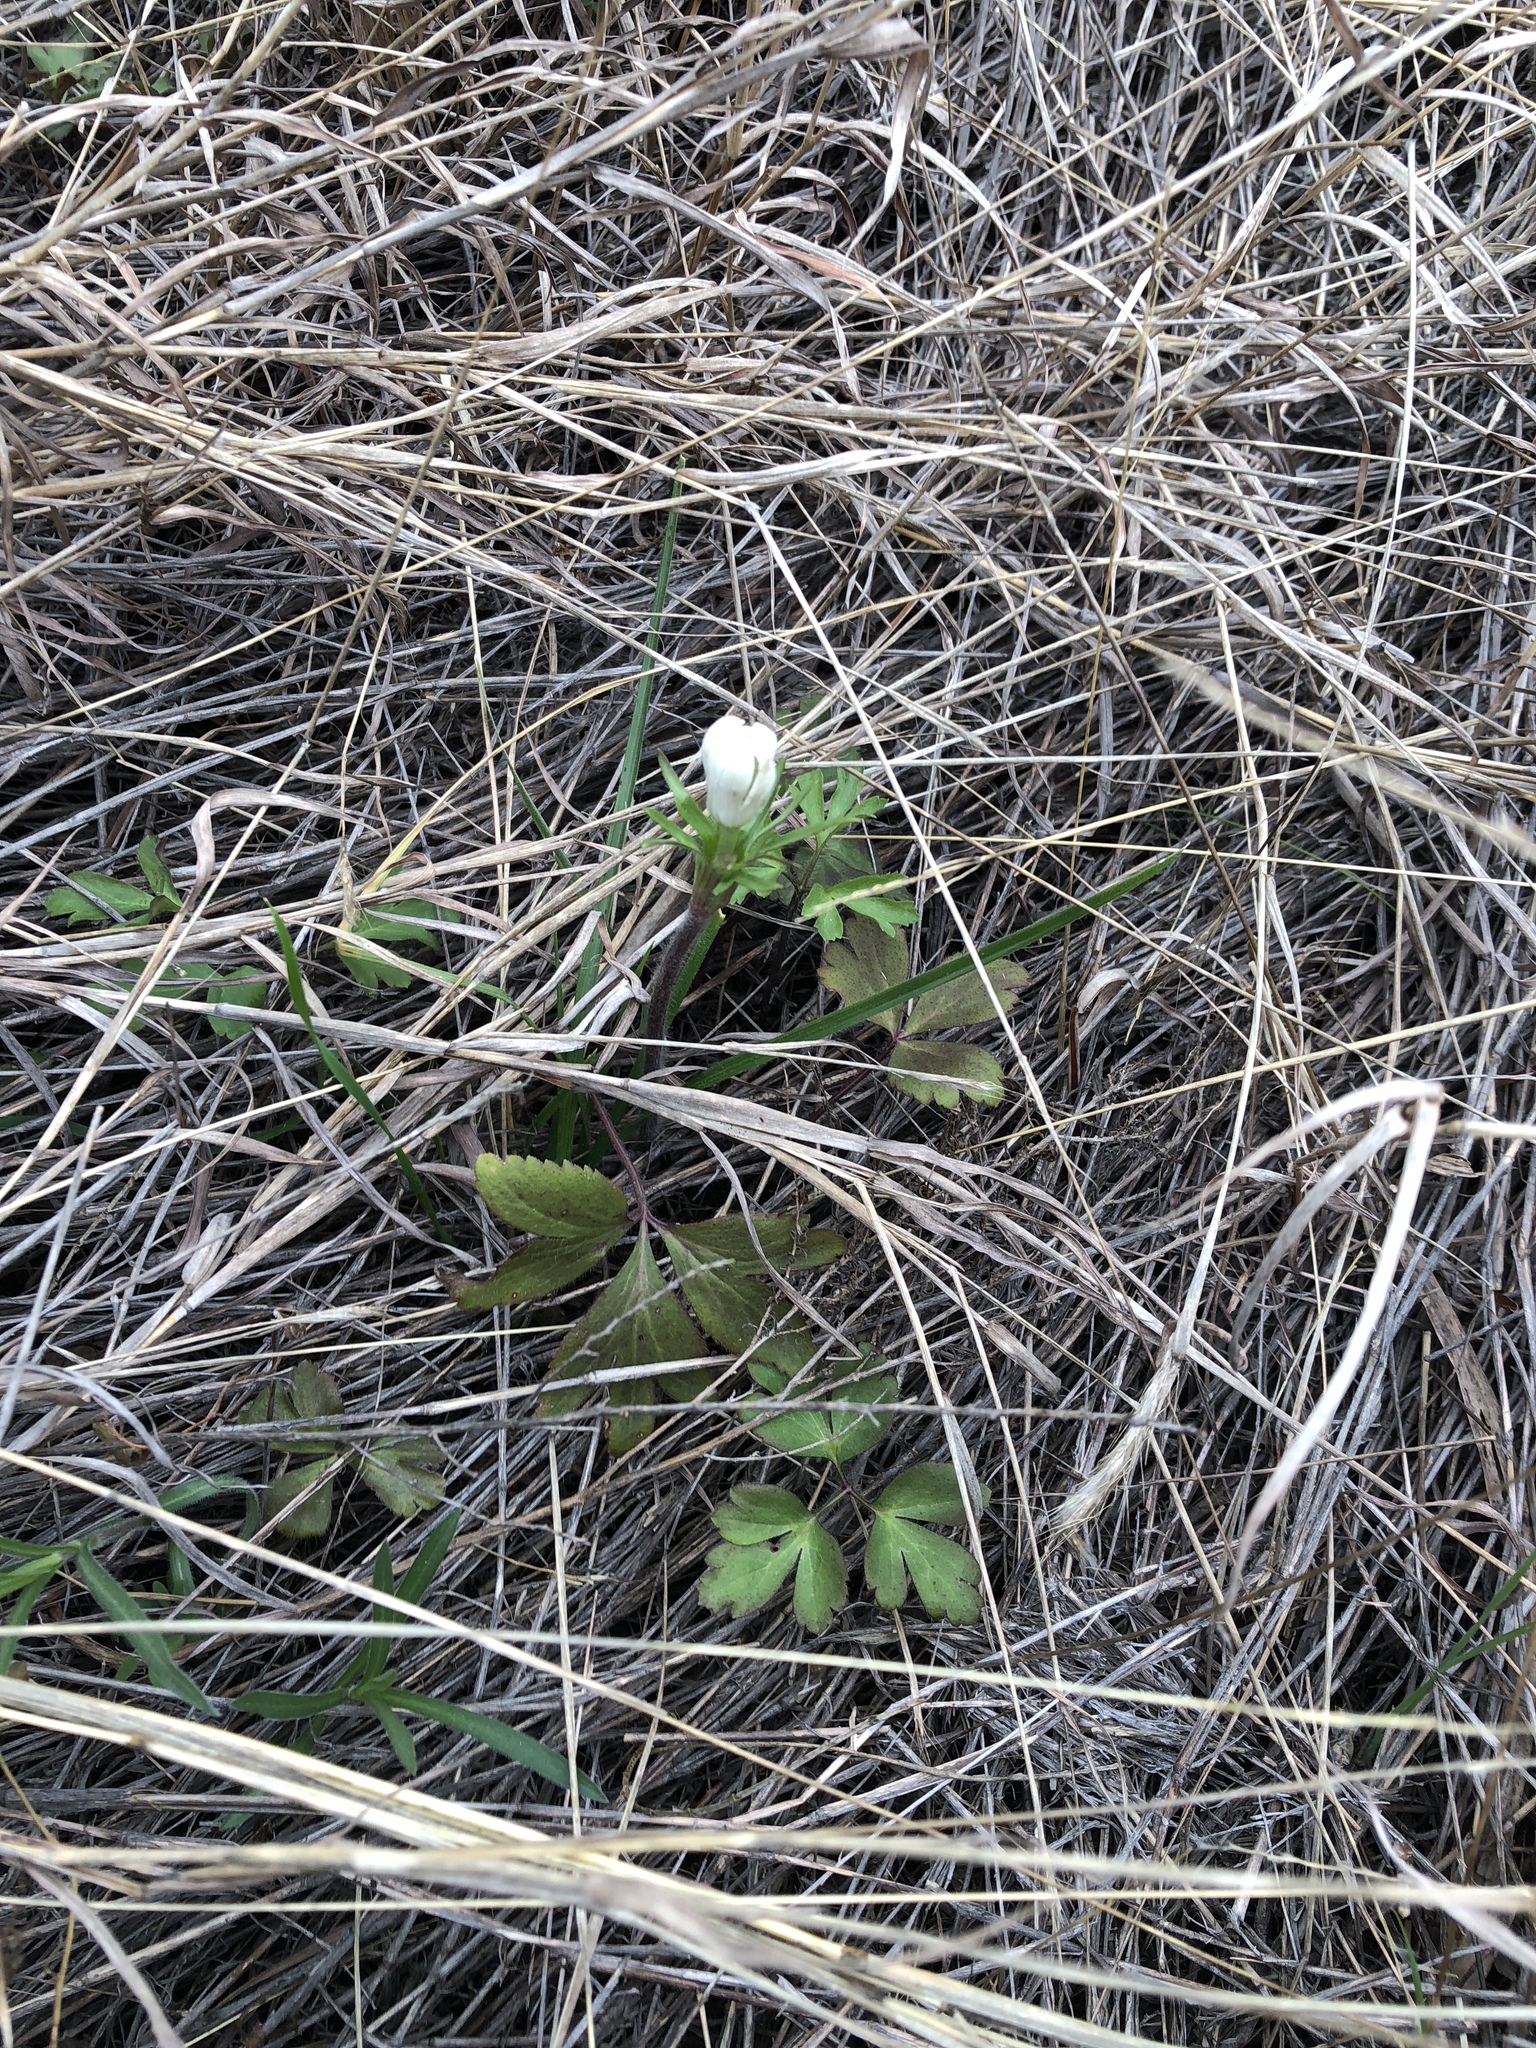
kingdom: Plantae
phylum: Tracheophyta
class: Magnoliopsida
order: Ranunculales
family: Ranunculaceae
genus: Anemone
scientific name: Anemone berlandieri
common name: Ten-petal anemone
